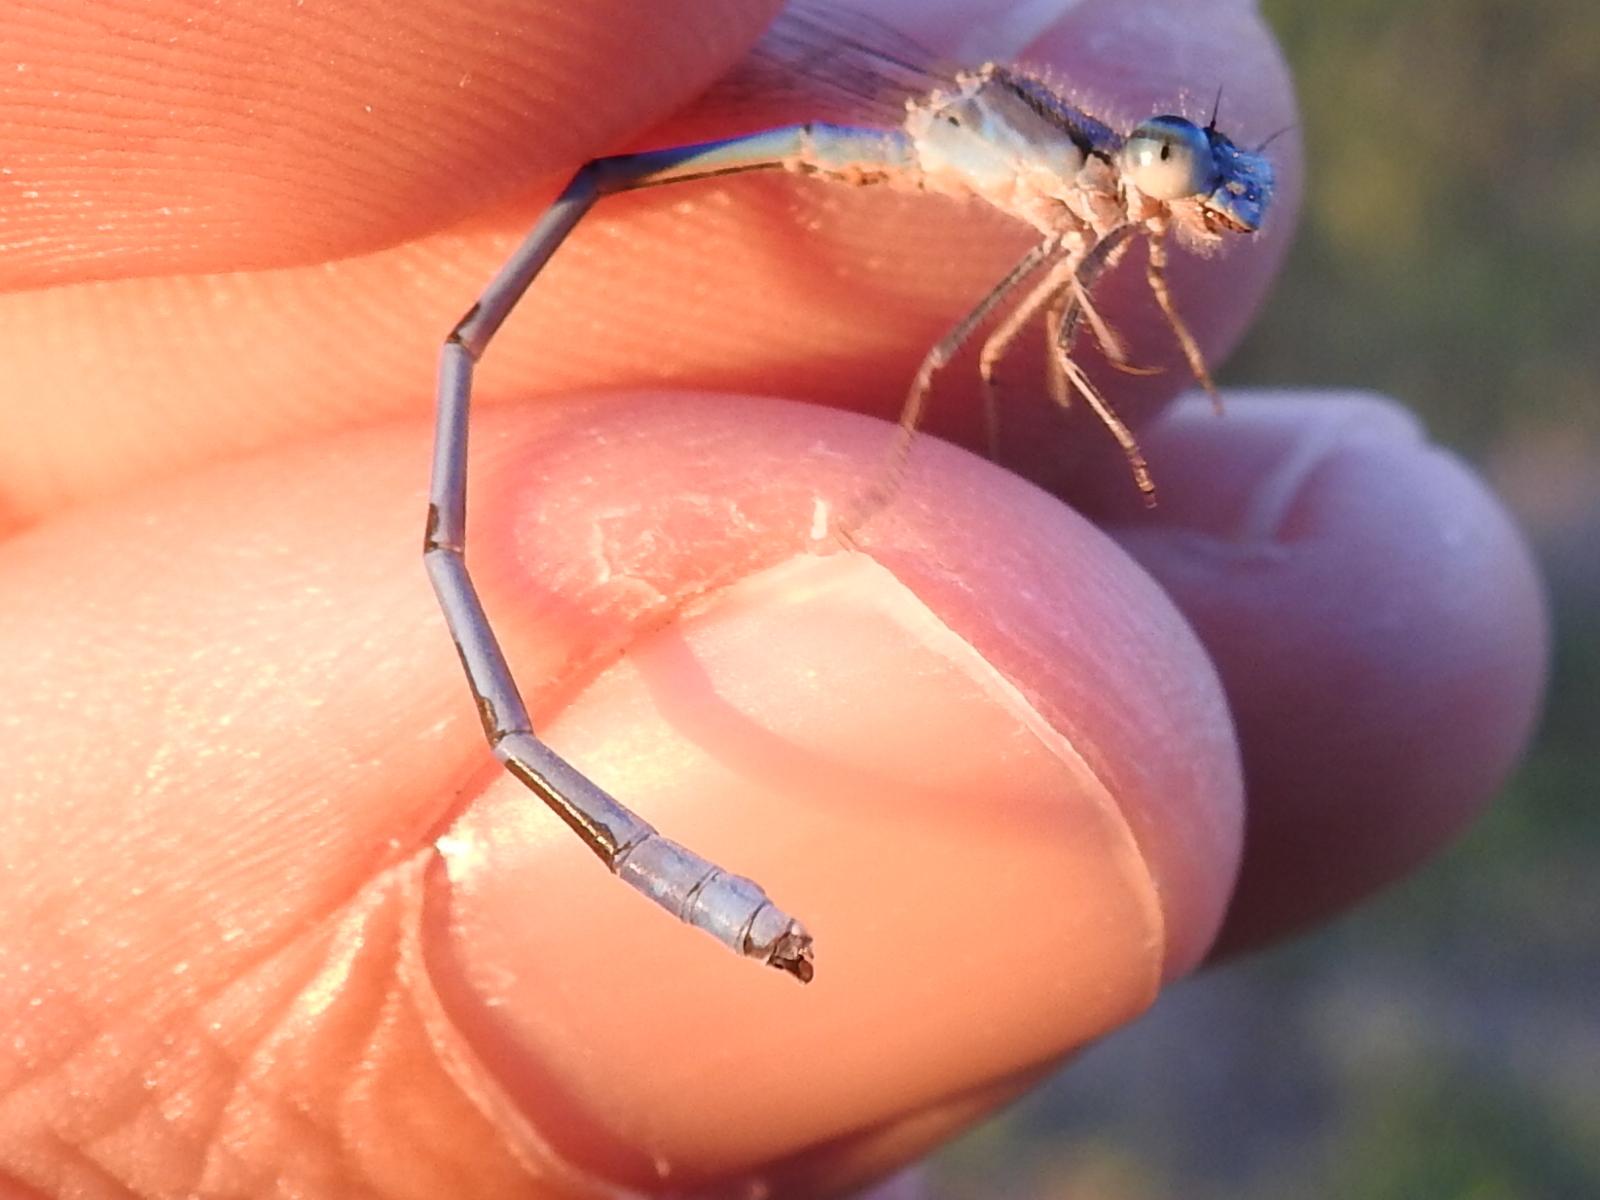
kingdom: Animalia
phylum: Arthropoda
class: Insecta
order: Odonata
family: Coenagrionidae
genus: Enallagma
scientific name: Enallagma civile
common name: Damselfly
